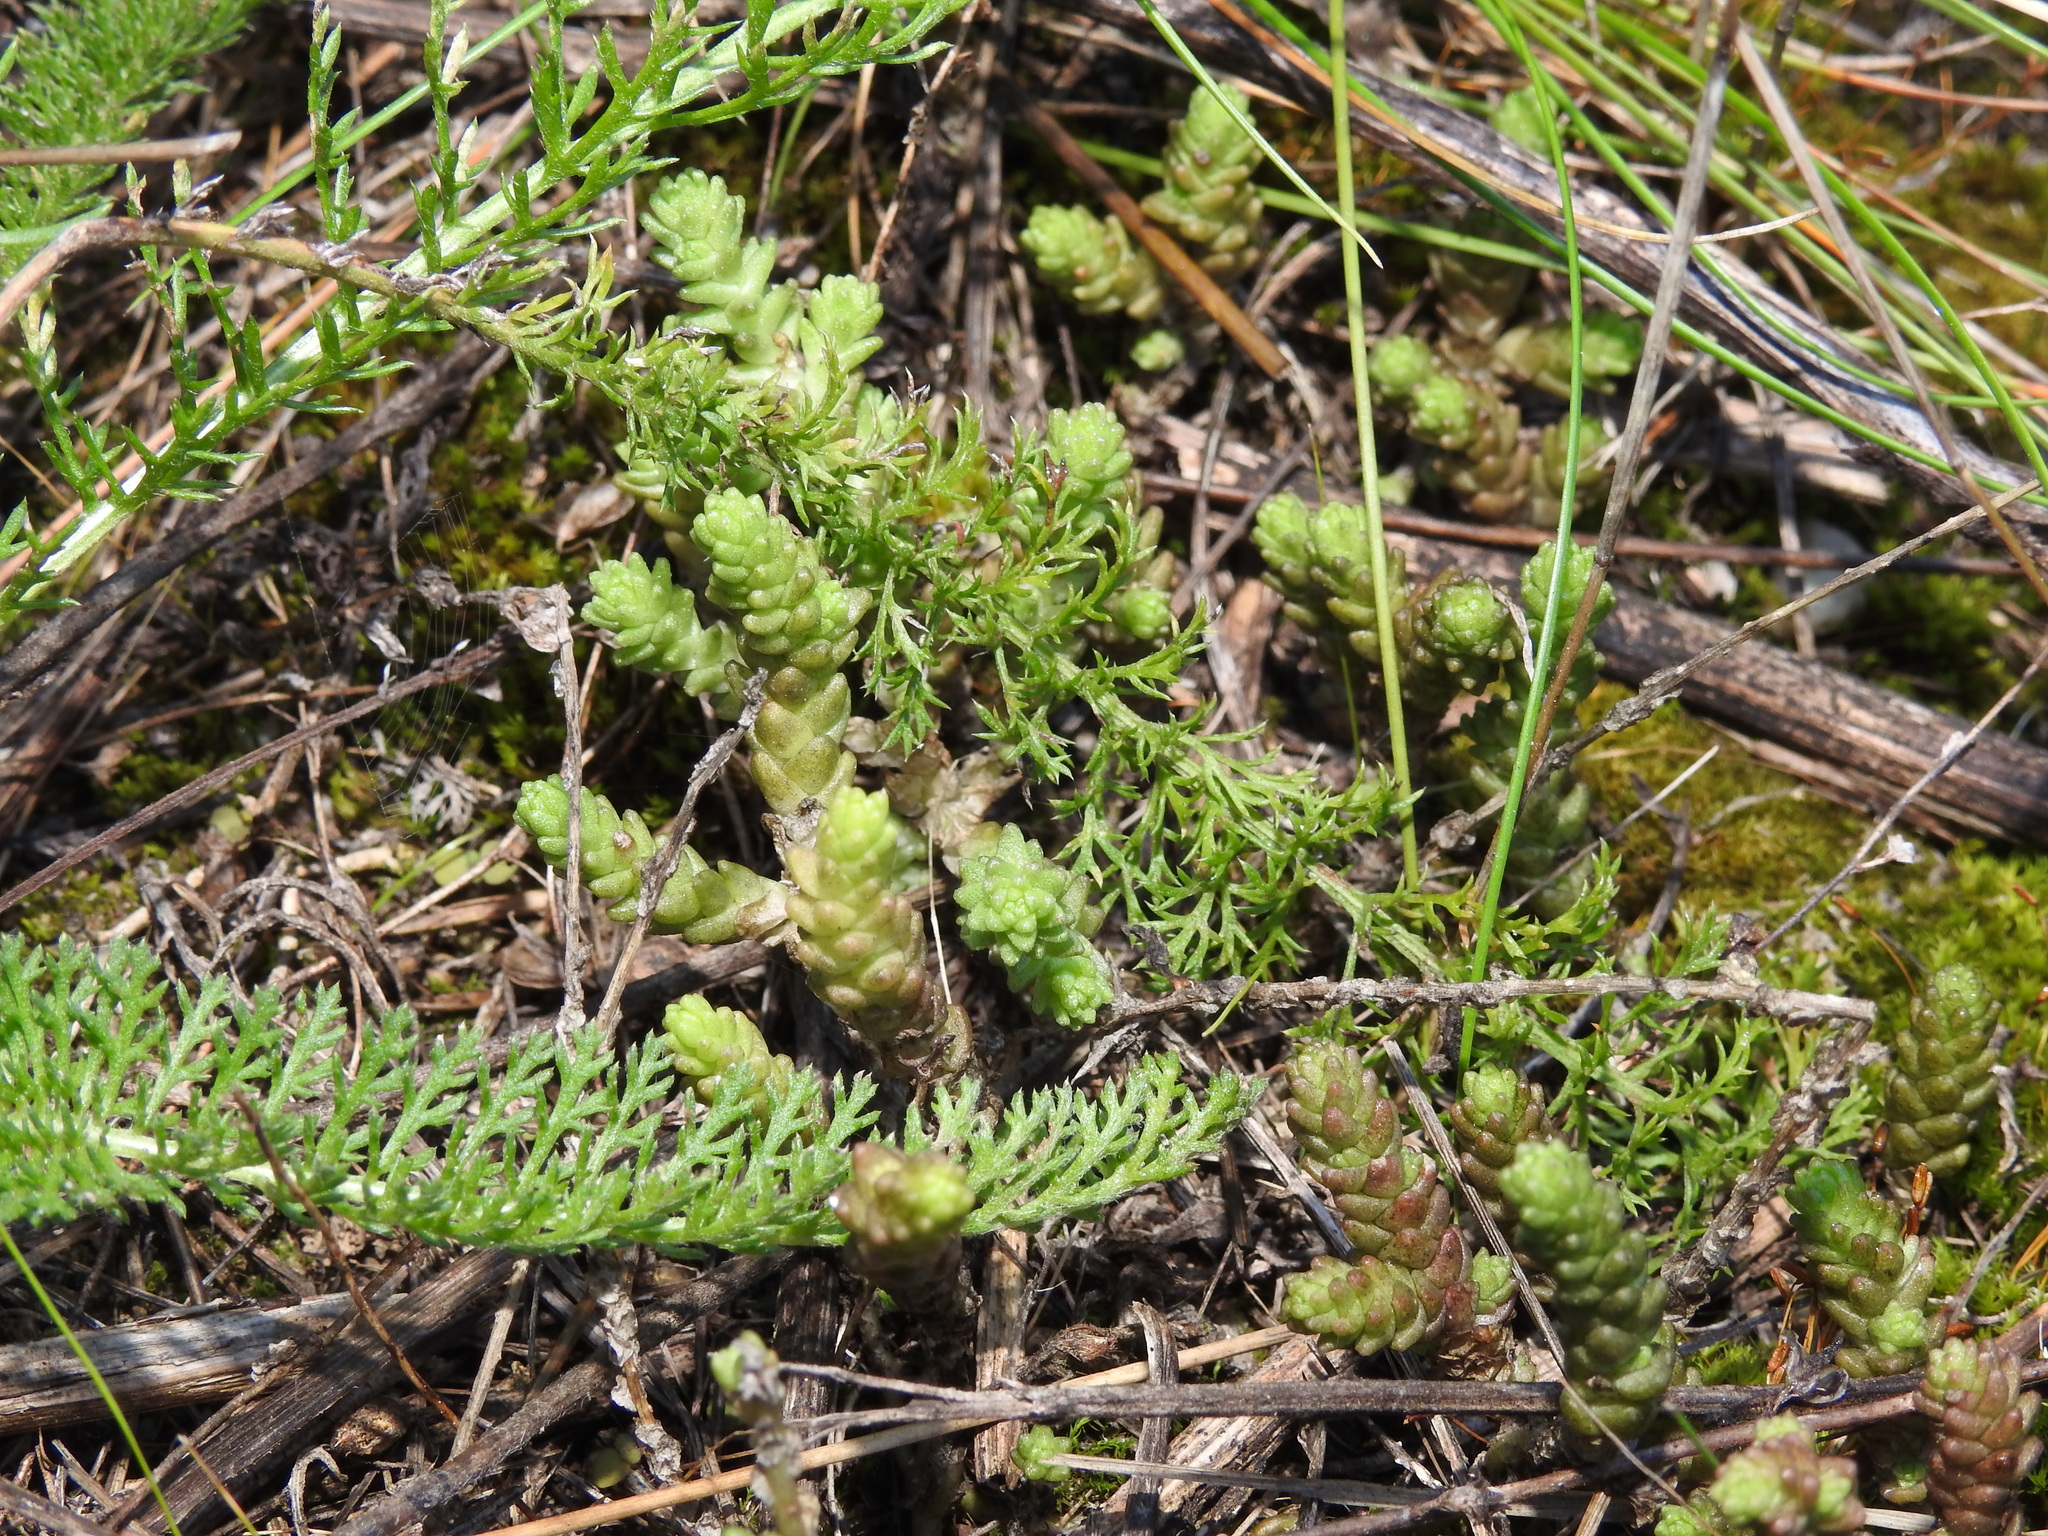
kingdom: Plantae
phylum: Tracheophyta
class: Magnoliopsida
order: Saxifragales
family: Crassulaceae
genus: Sedum
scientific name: Sedum acre
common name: Biting stonecrop
